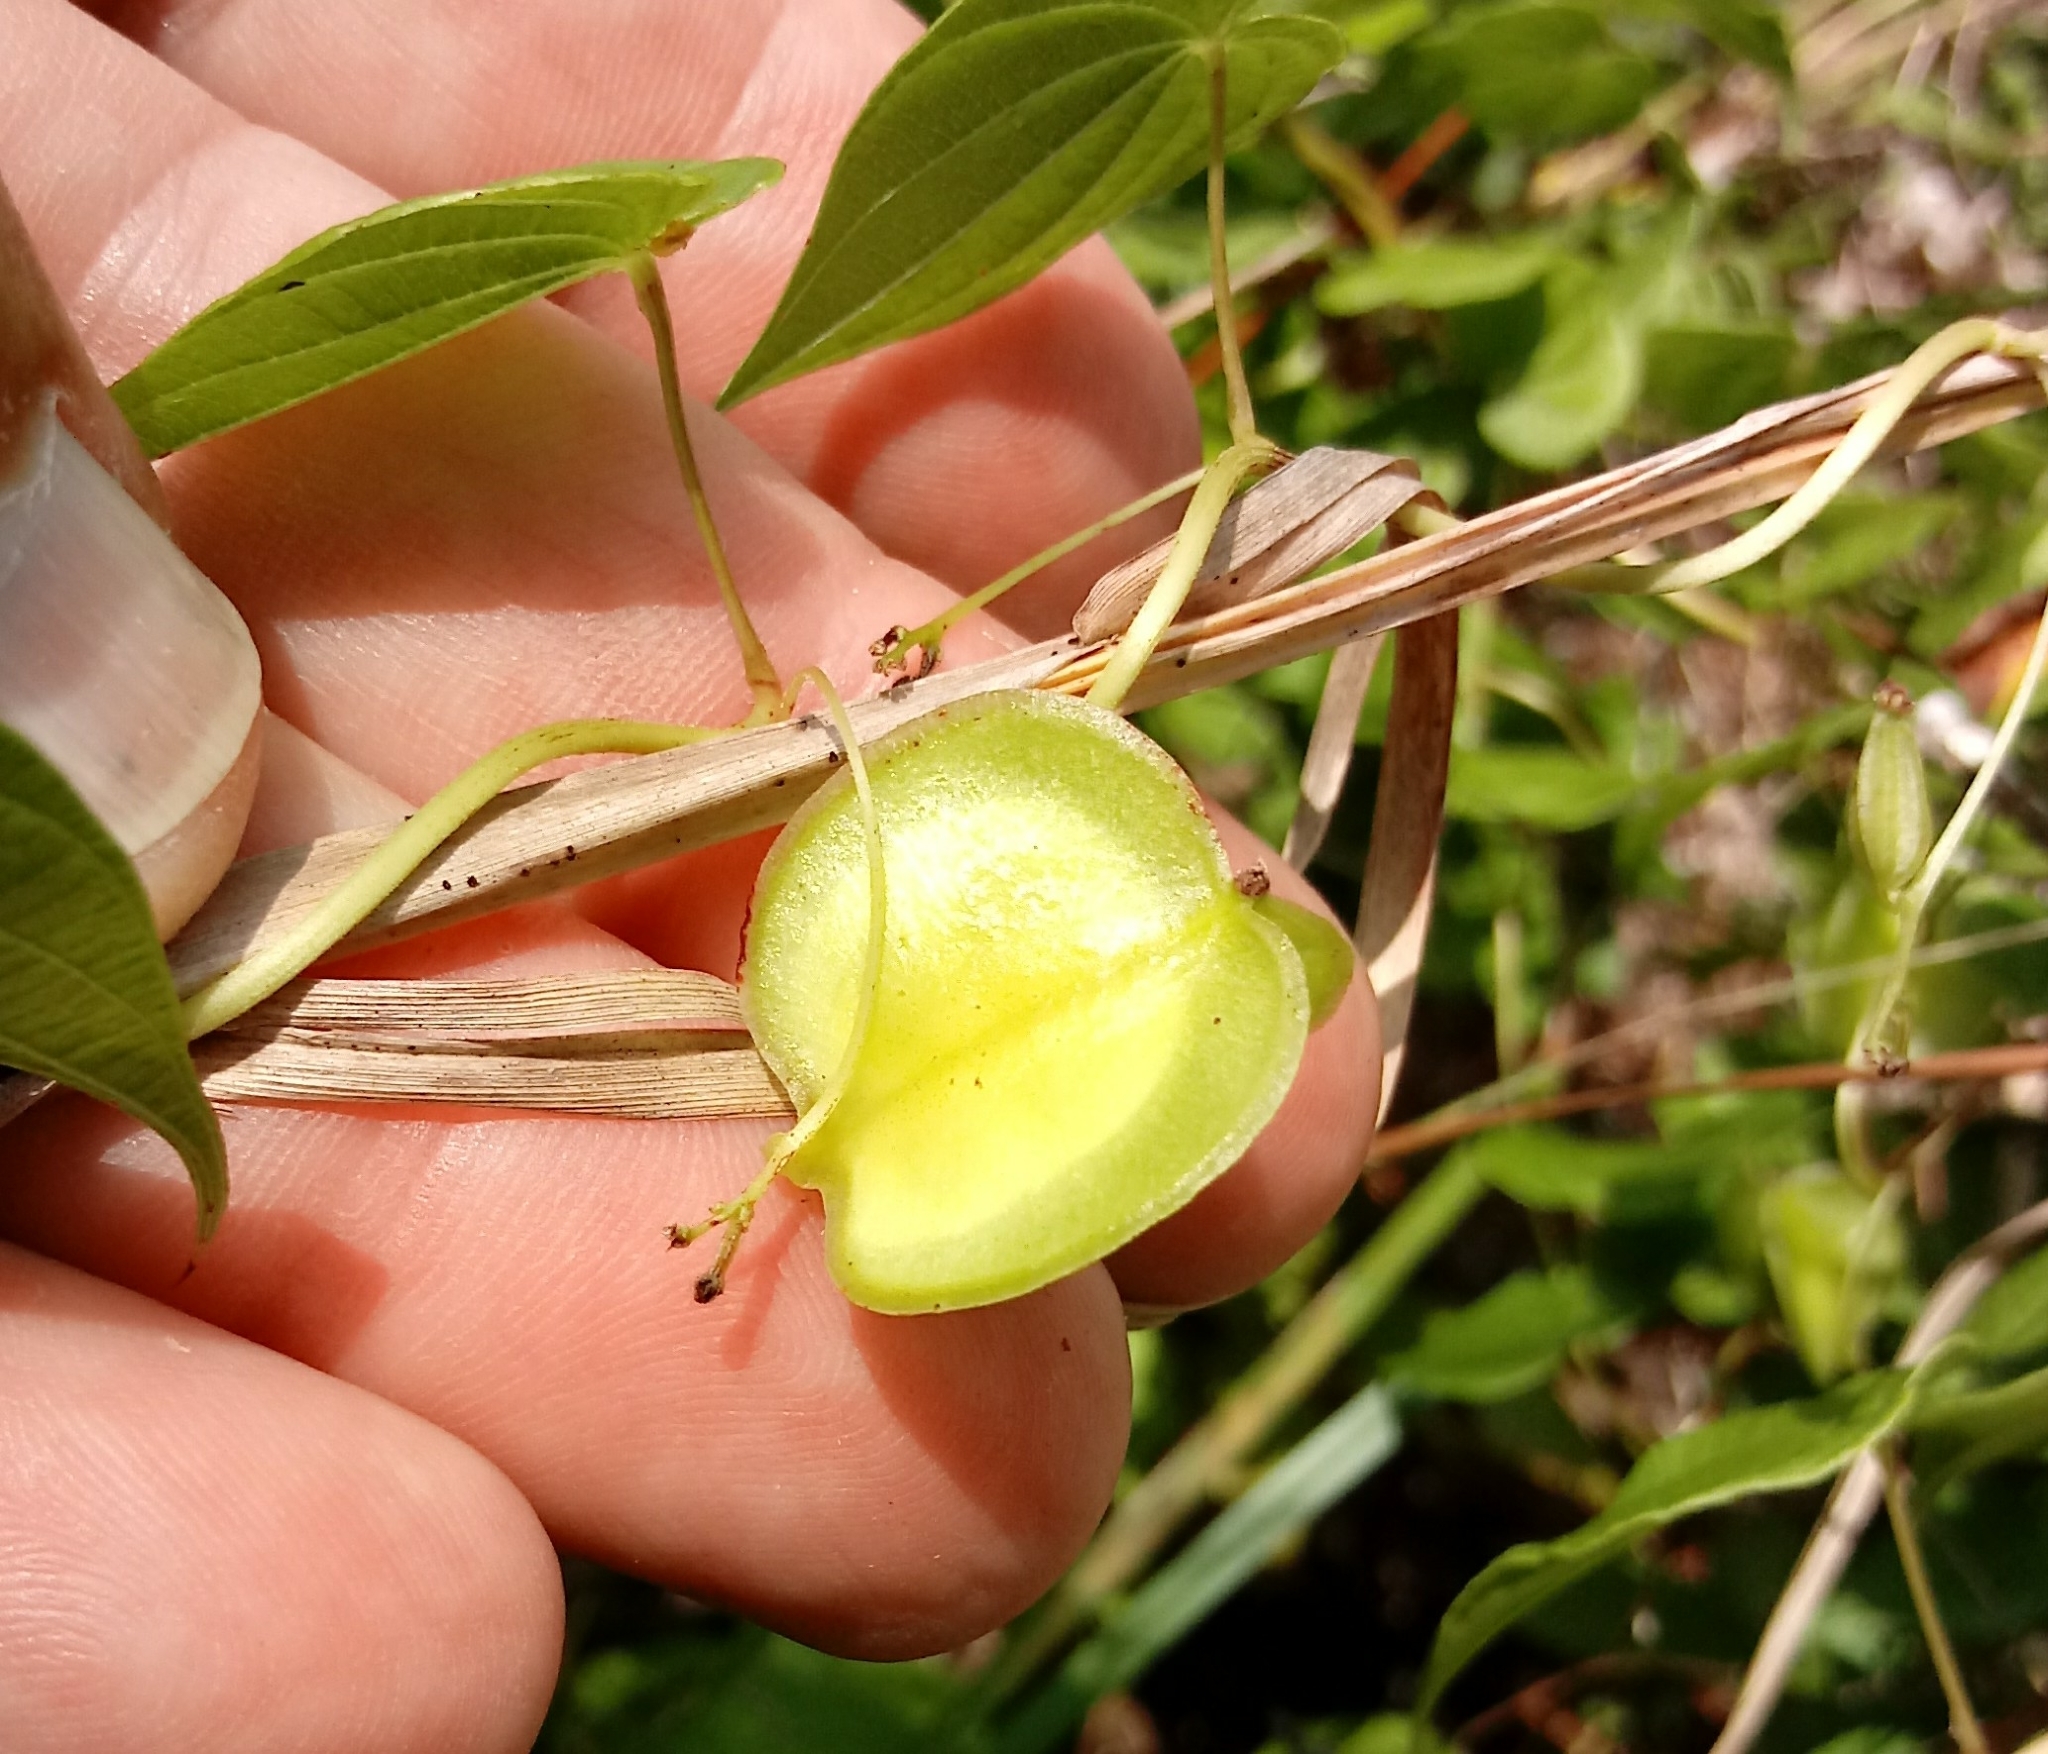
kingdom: Plantae
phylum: Tracheophyta
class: Liliopsida
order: Dioscoreales
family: Dioscoreaceae
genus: Dioscorea
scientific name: Dioscorea villosa
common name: Wild yam
